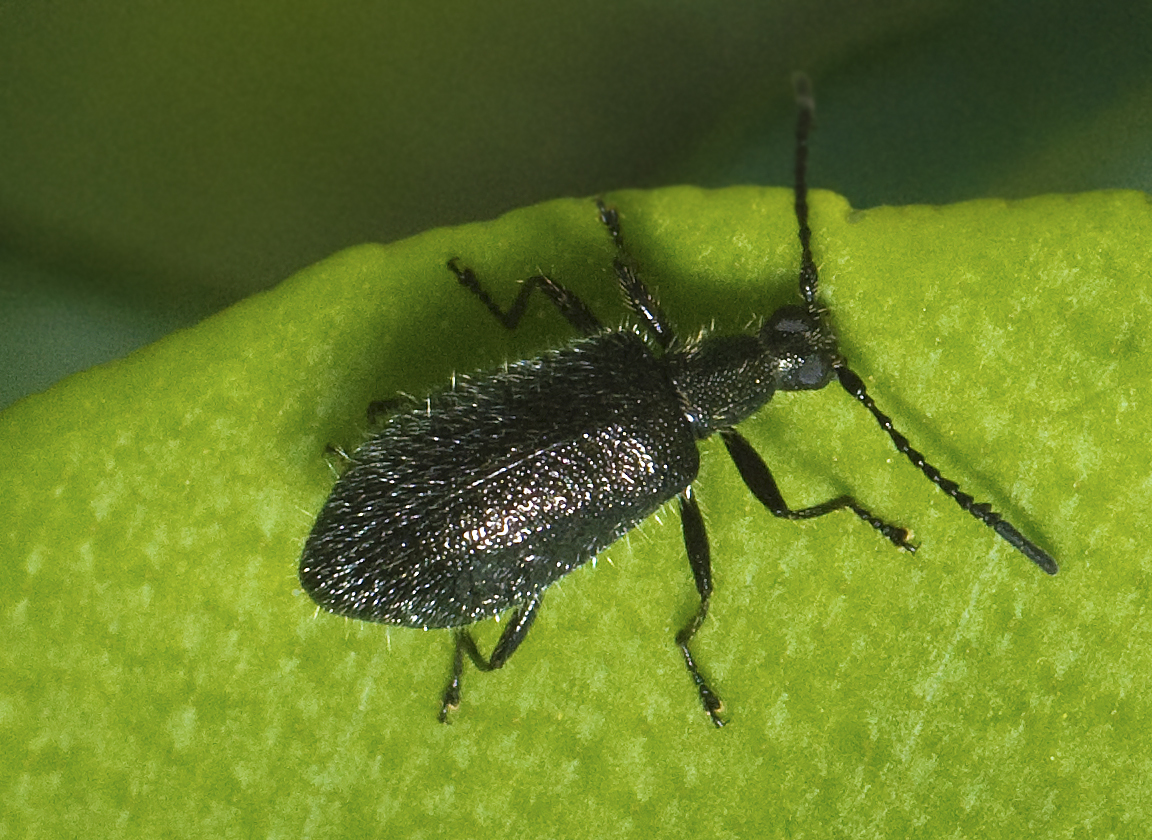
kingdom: Animalia
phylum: Arthropoda
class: Insecta
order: Coleoptera
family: Tenebrionidae
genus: Stenolagria
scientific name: Stenolagria
